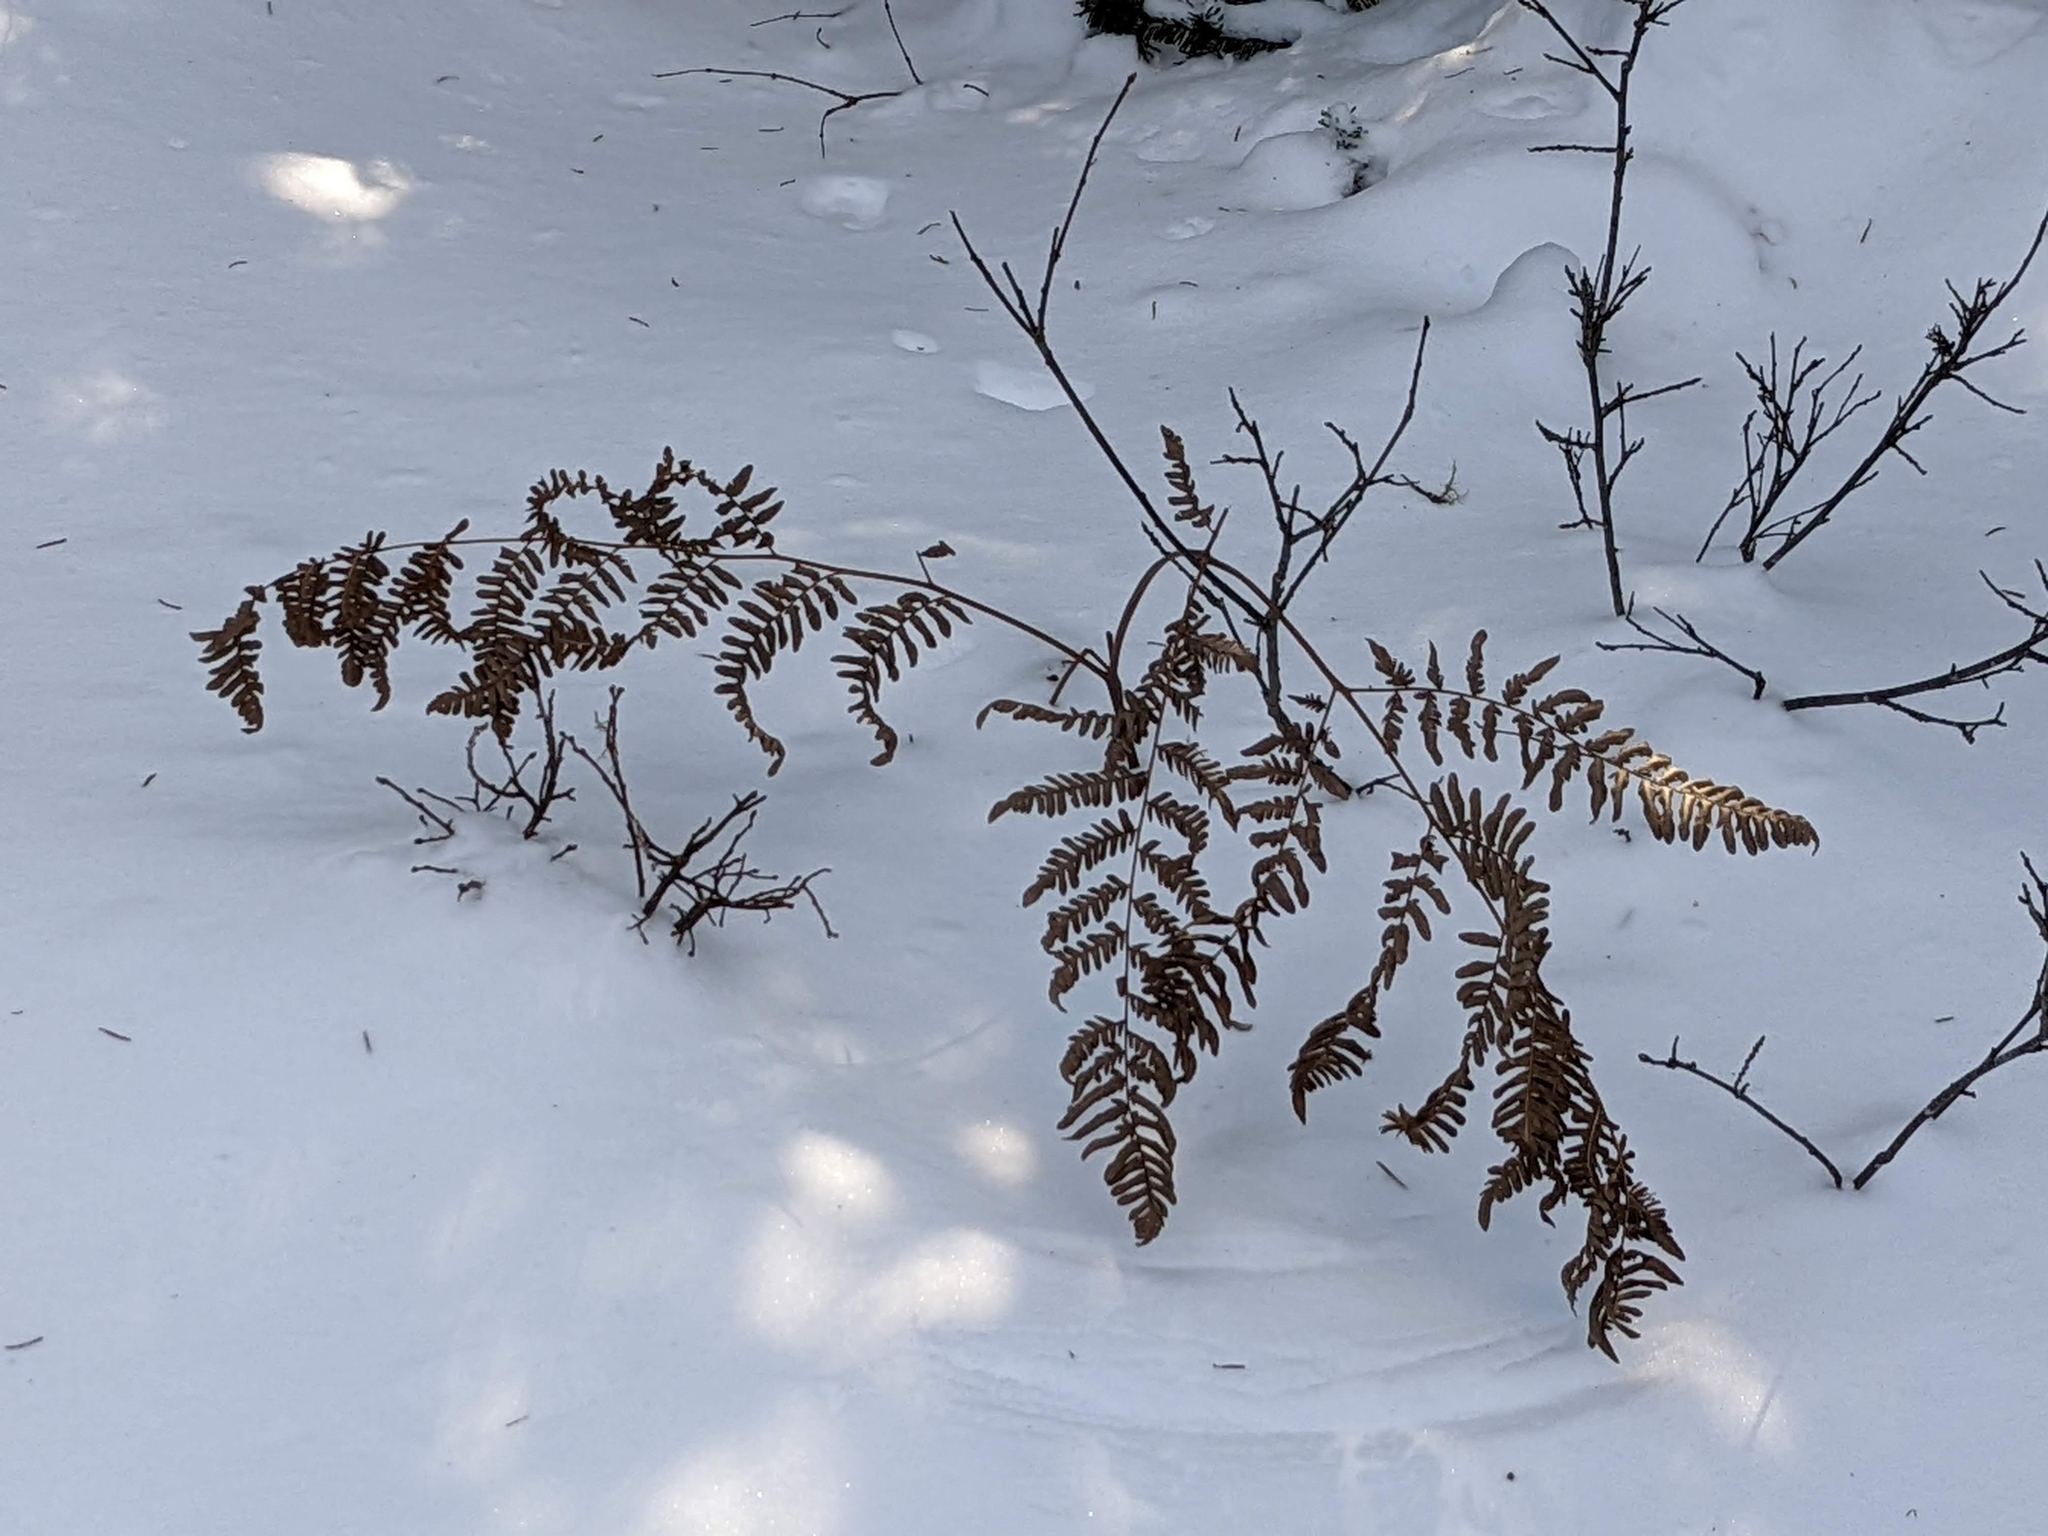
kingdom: Plantae
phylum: Tracheophyta
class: Polypodiopsida
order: Polypodiales
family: Dennstaedtiaceae
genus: Pteridium
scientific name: Pteridium aquilinum
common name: Bracken
